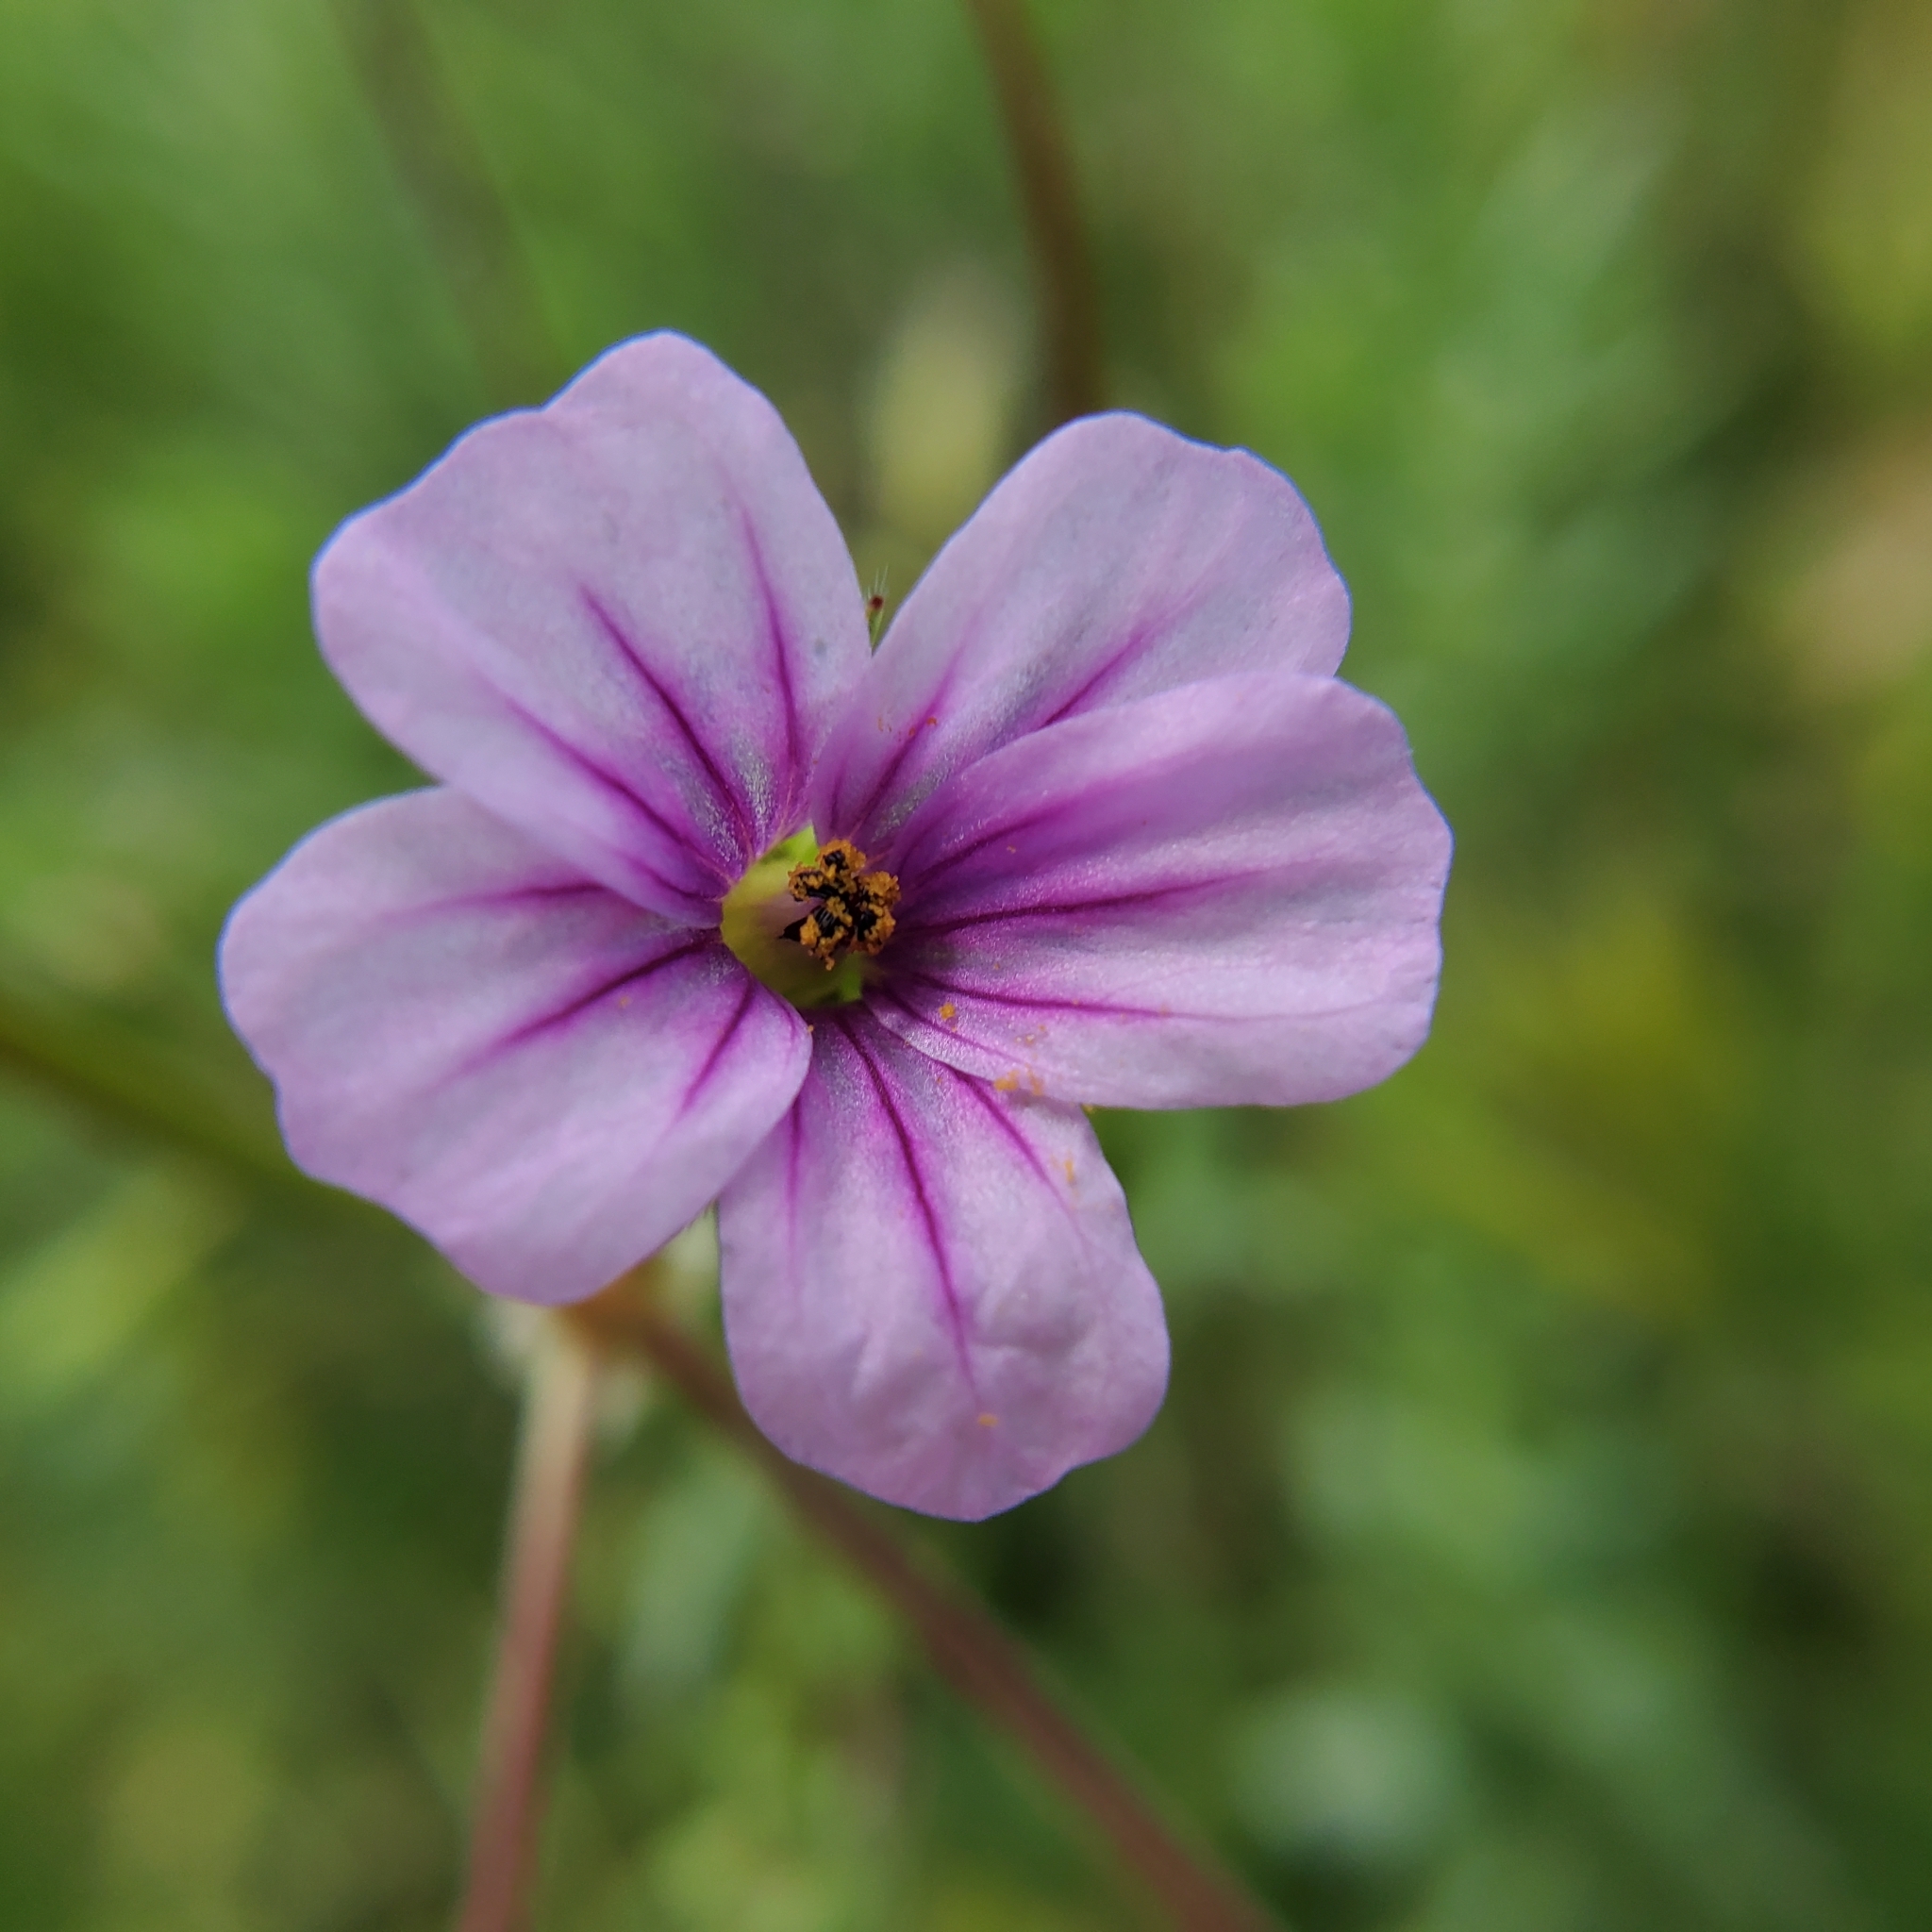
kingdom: Plantae
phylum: Tracheophyta
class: Magnoliopsida
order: Geraniales
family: Geraniaceae
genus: Erodium
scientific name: Erodium botrys
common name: Mediterranean stork's-bill
